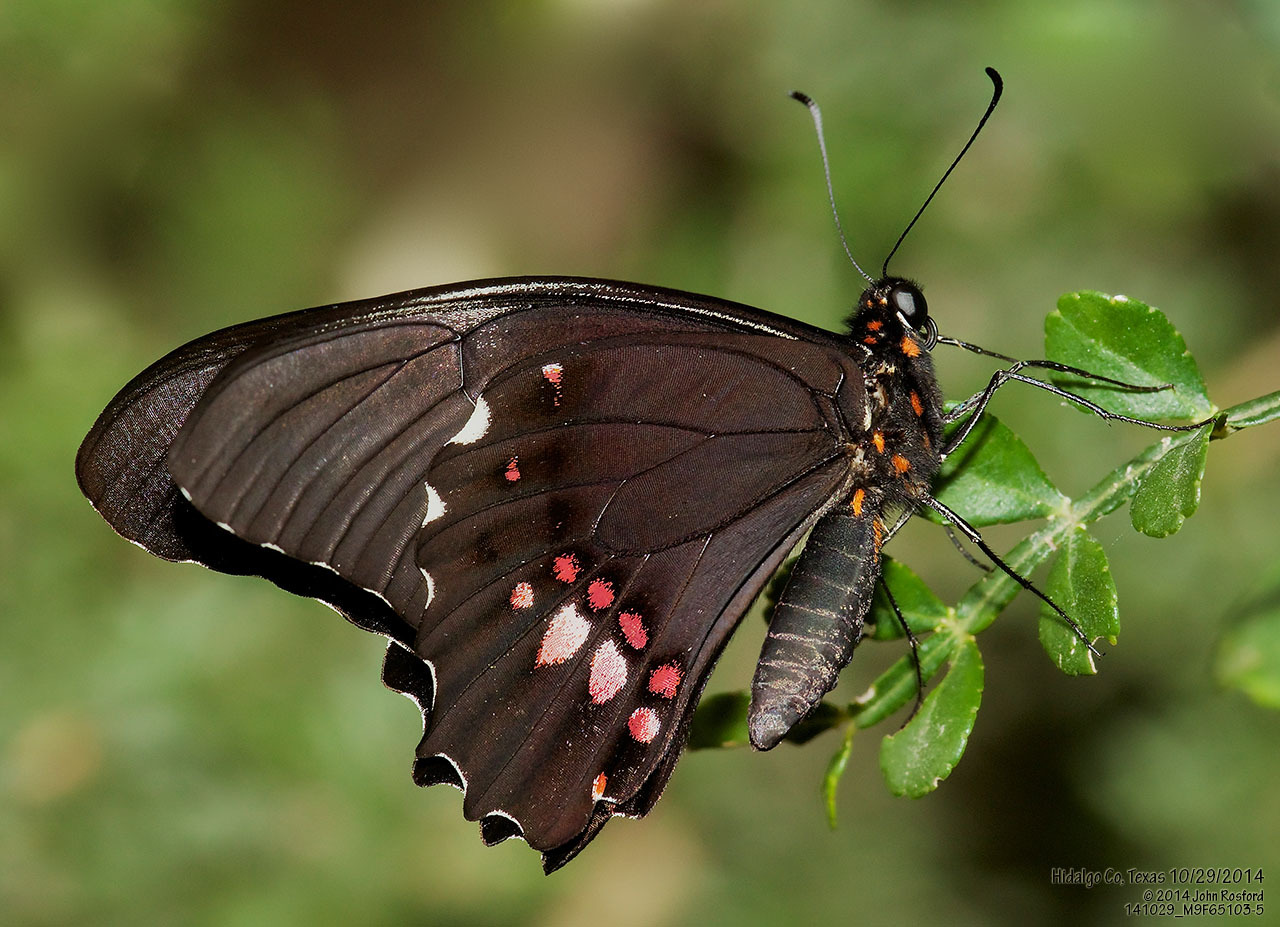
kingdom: Animalia
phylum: Arthropoda
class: Insecta
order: Lepidoptera
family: Papilionidae
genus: Papilio
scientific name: Papilio anchisiades
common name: Idaes swallowtail
